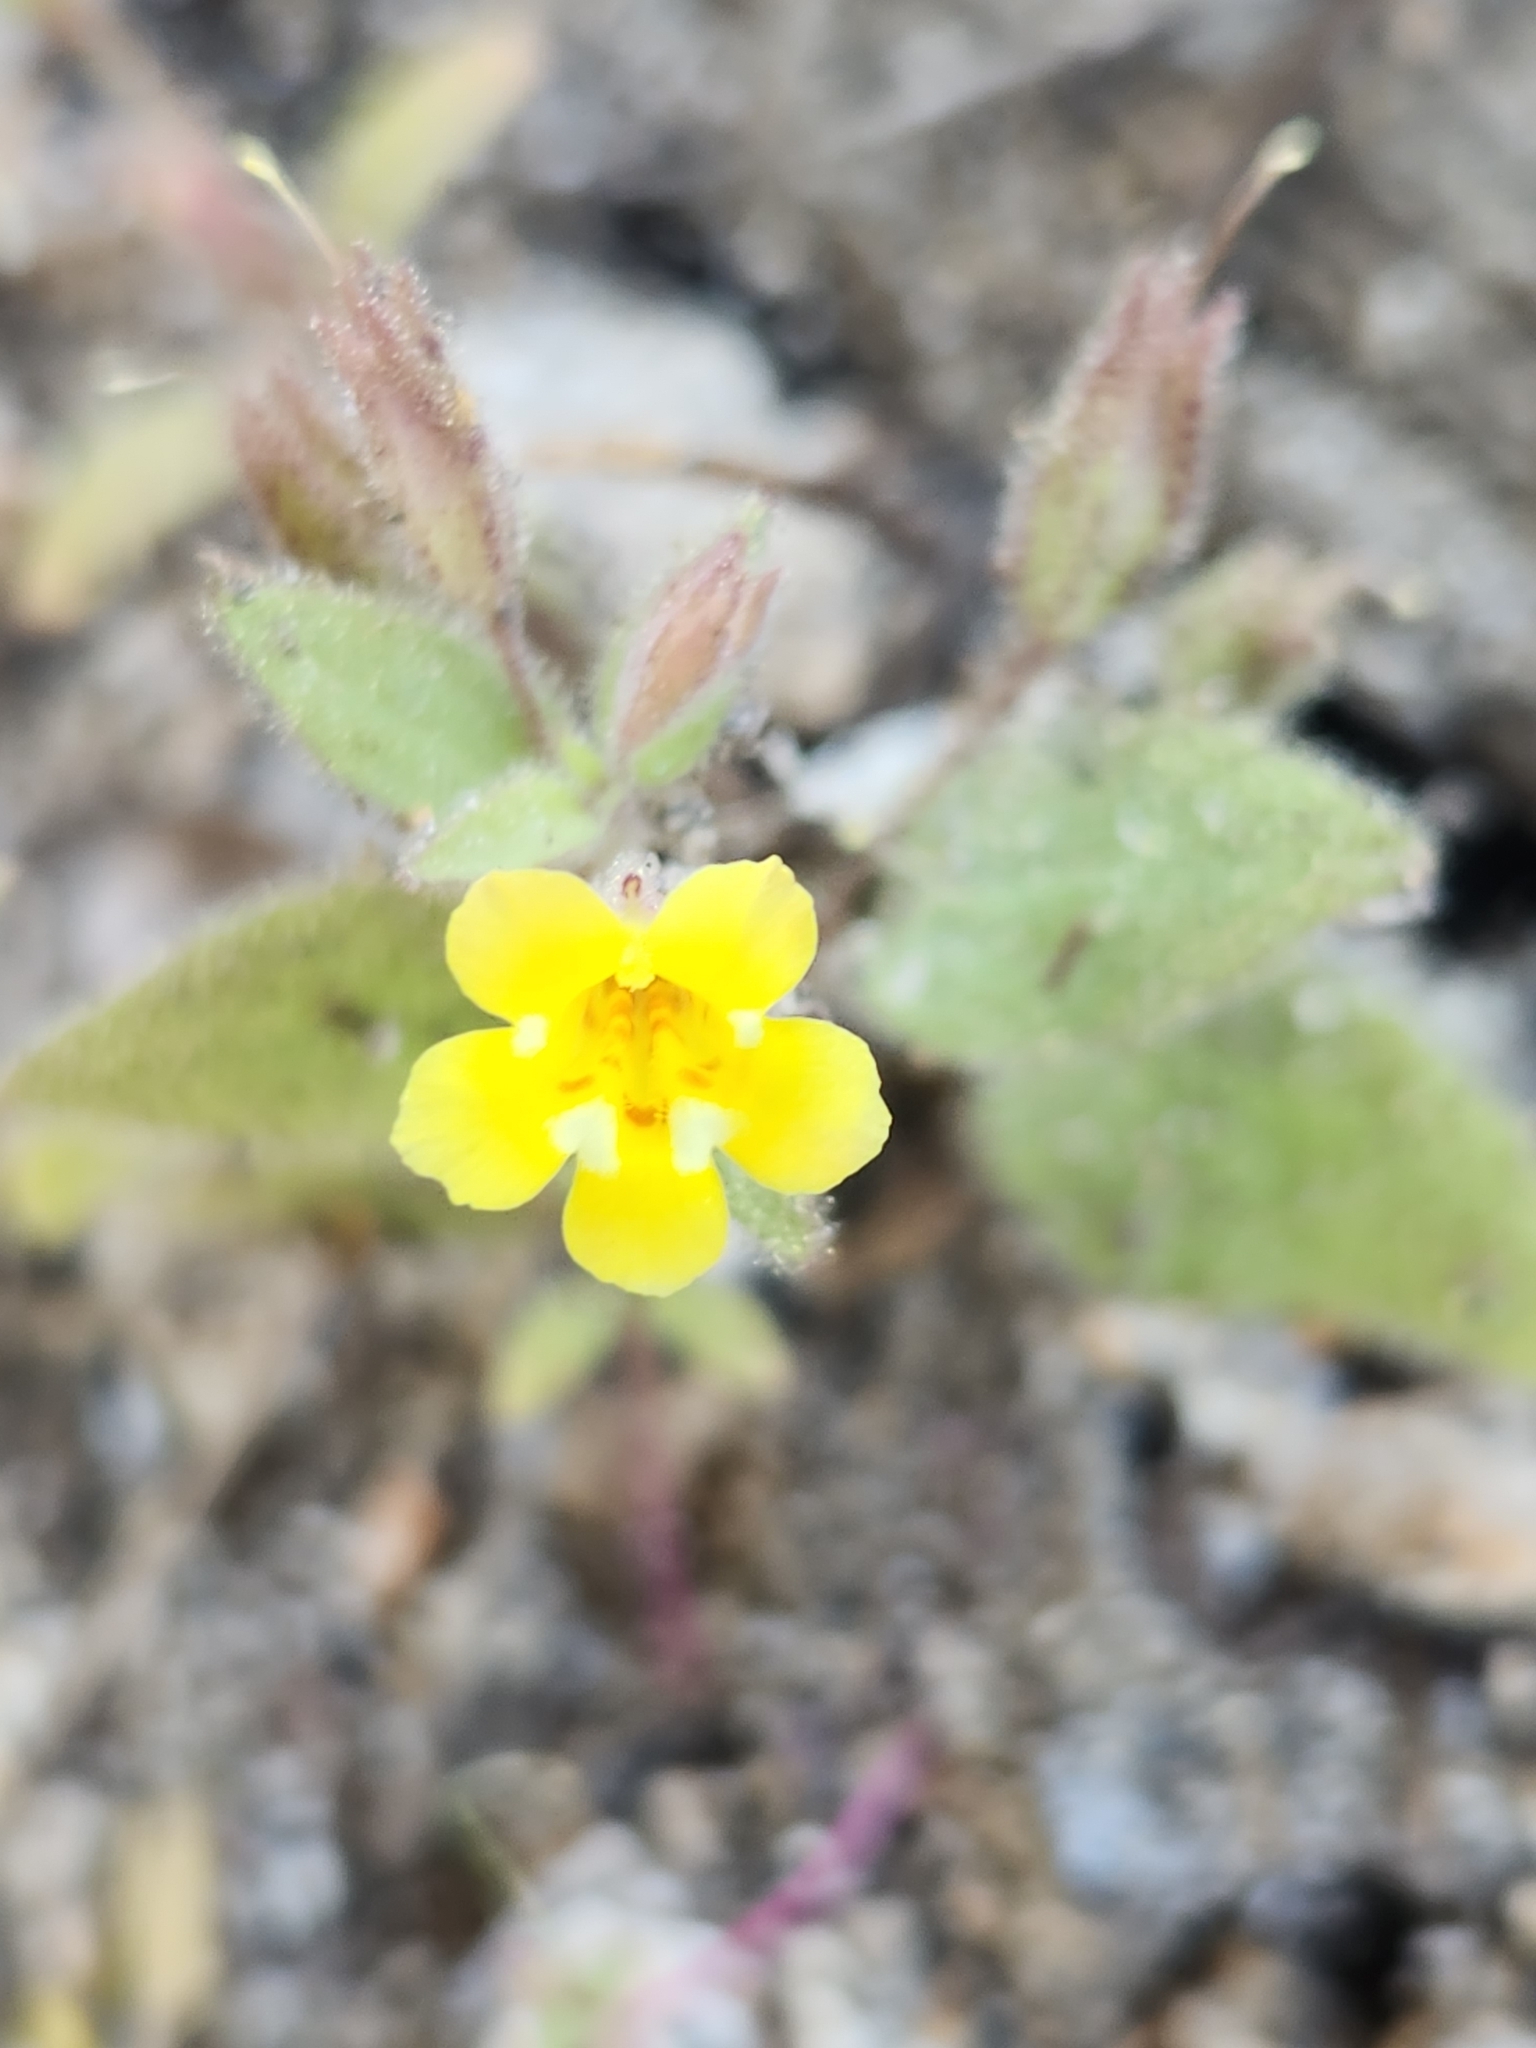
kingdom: Plantae
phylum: Tracheophyta
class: Magnoliopsida
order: Lamiales
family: Phrymaceae
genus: Erythranthe
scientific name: Erythranthe floribunda
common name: Floriferous monkeyflower
